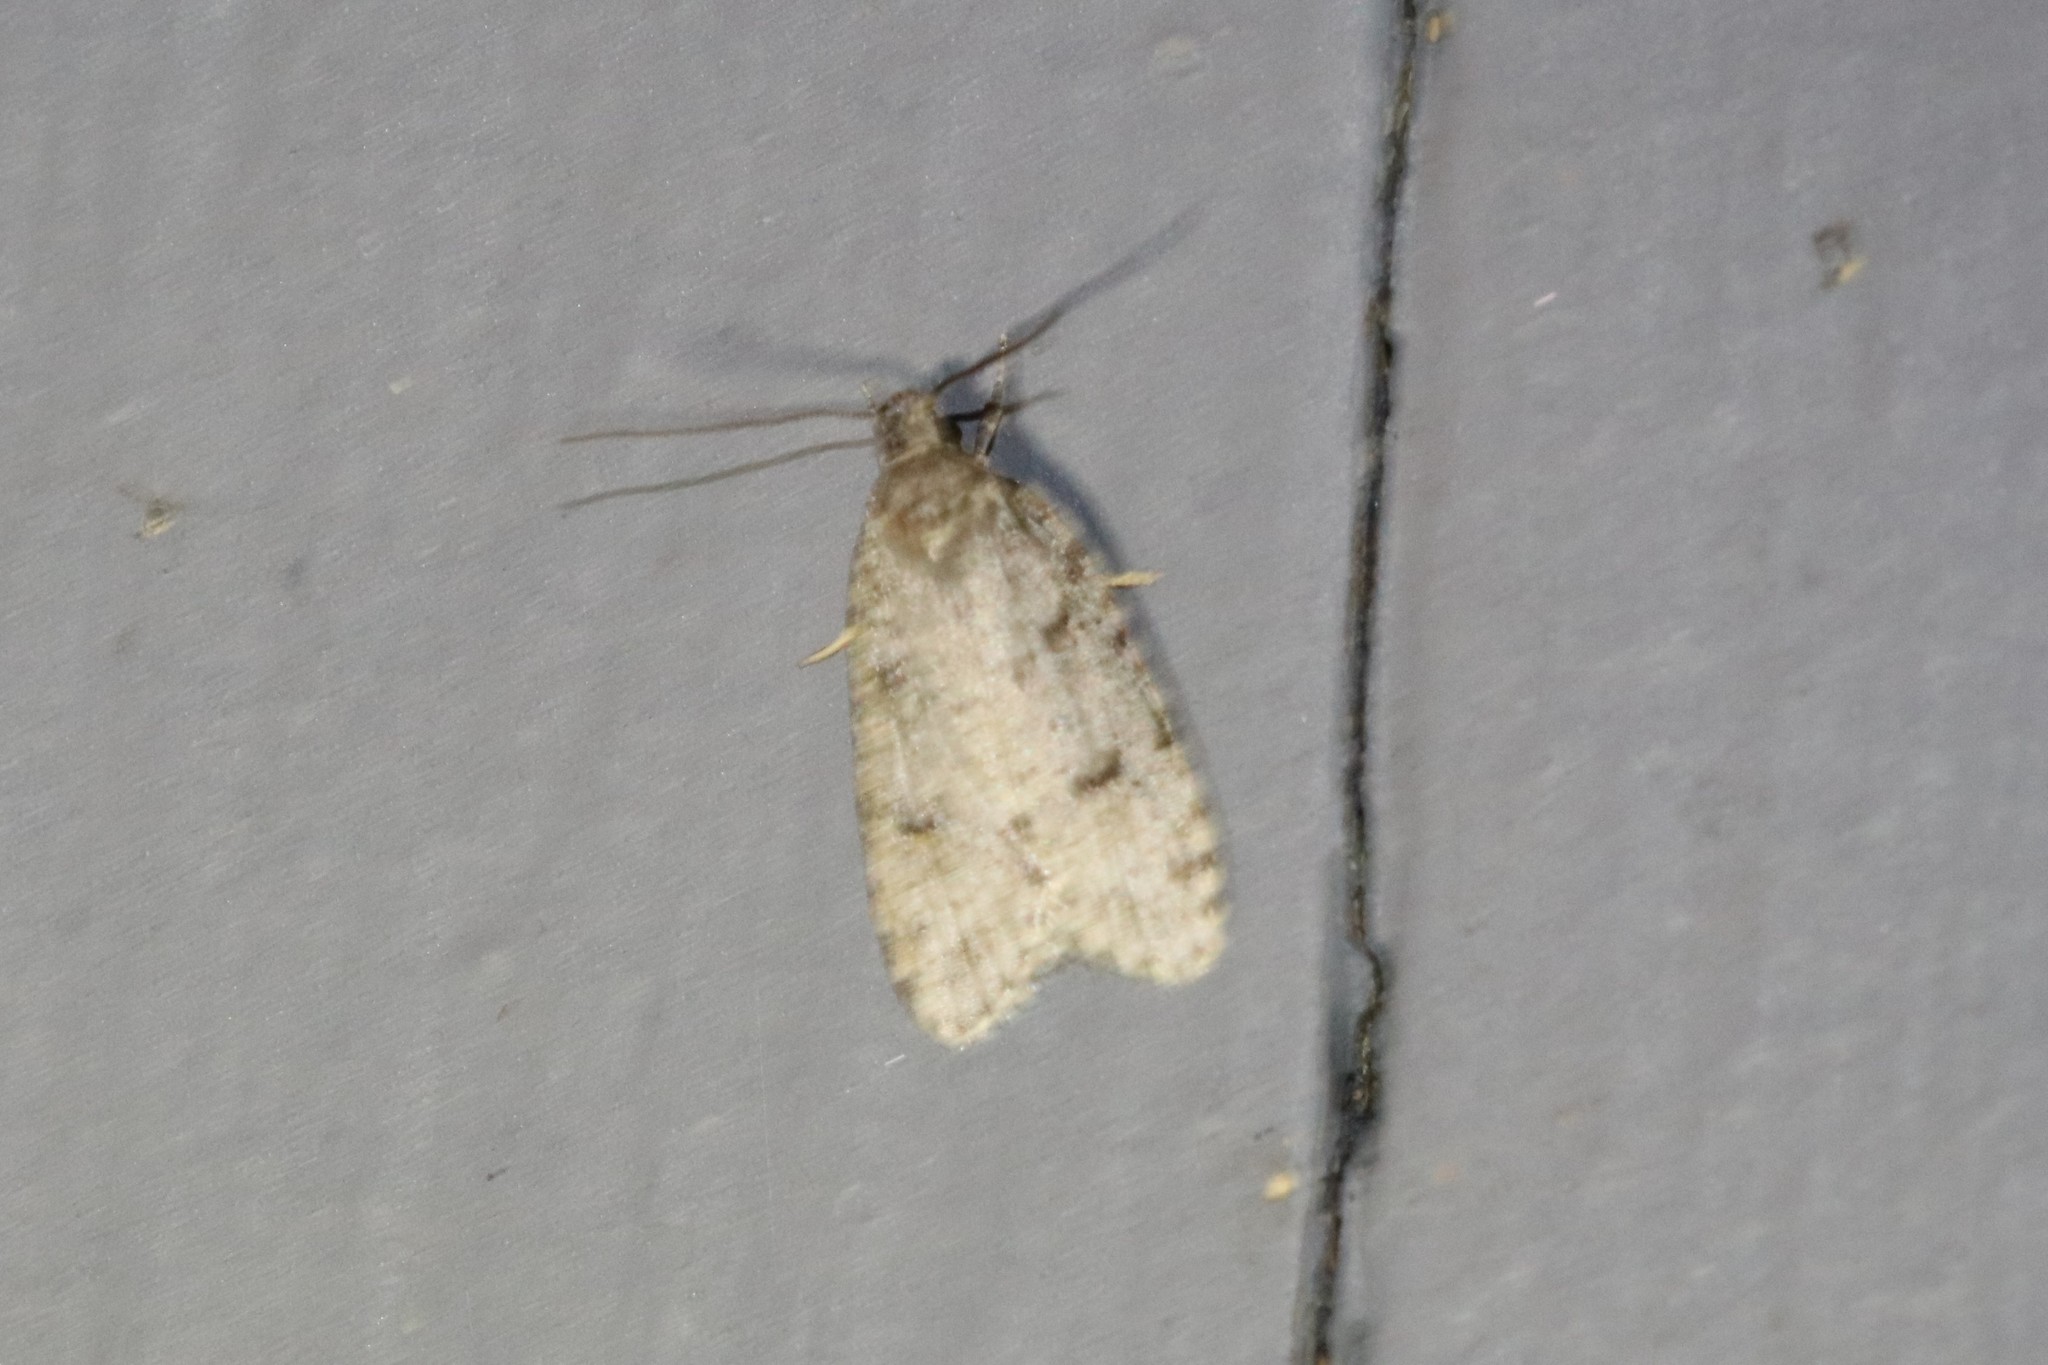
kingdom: Animalia
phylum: Arthropoda
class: Insecta
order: Lepidoptera
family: Depressariidae
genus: Bibarrambla
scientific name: Bibarrambla allenella
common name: Bog bibarrambla moth
